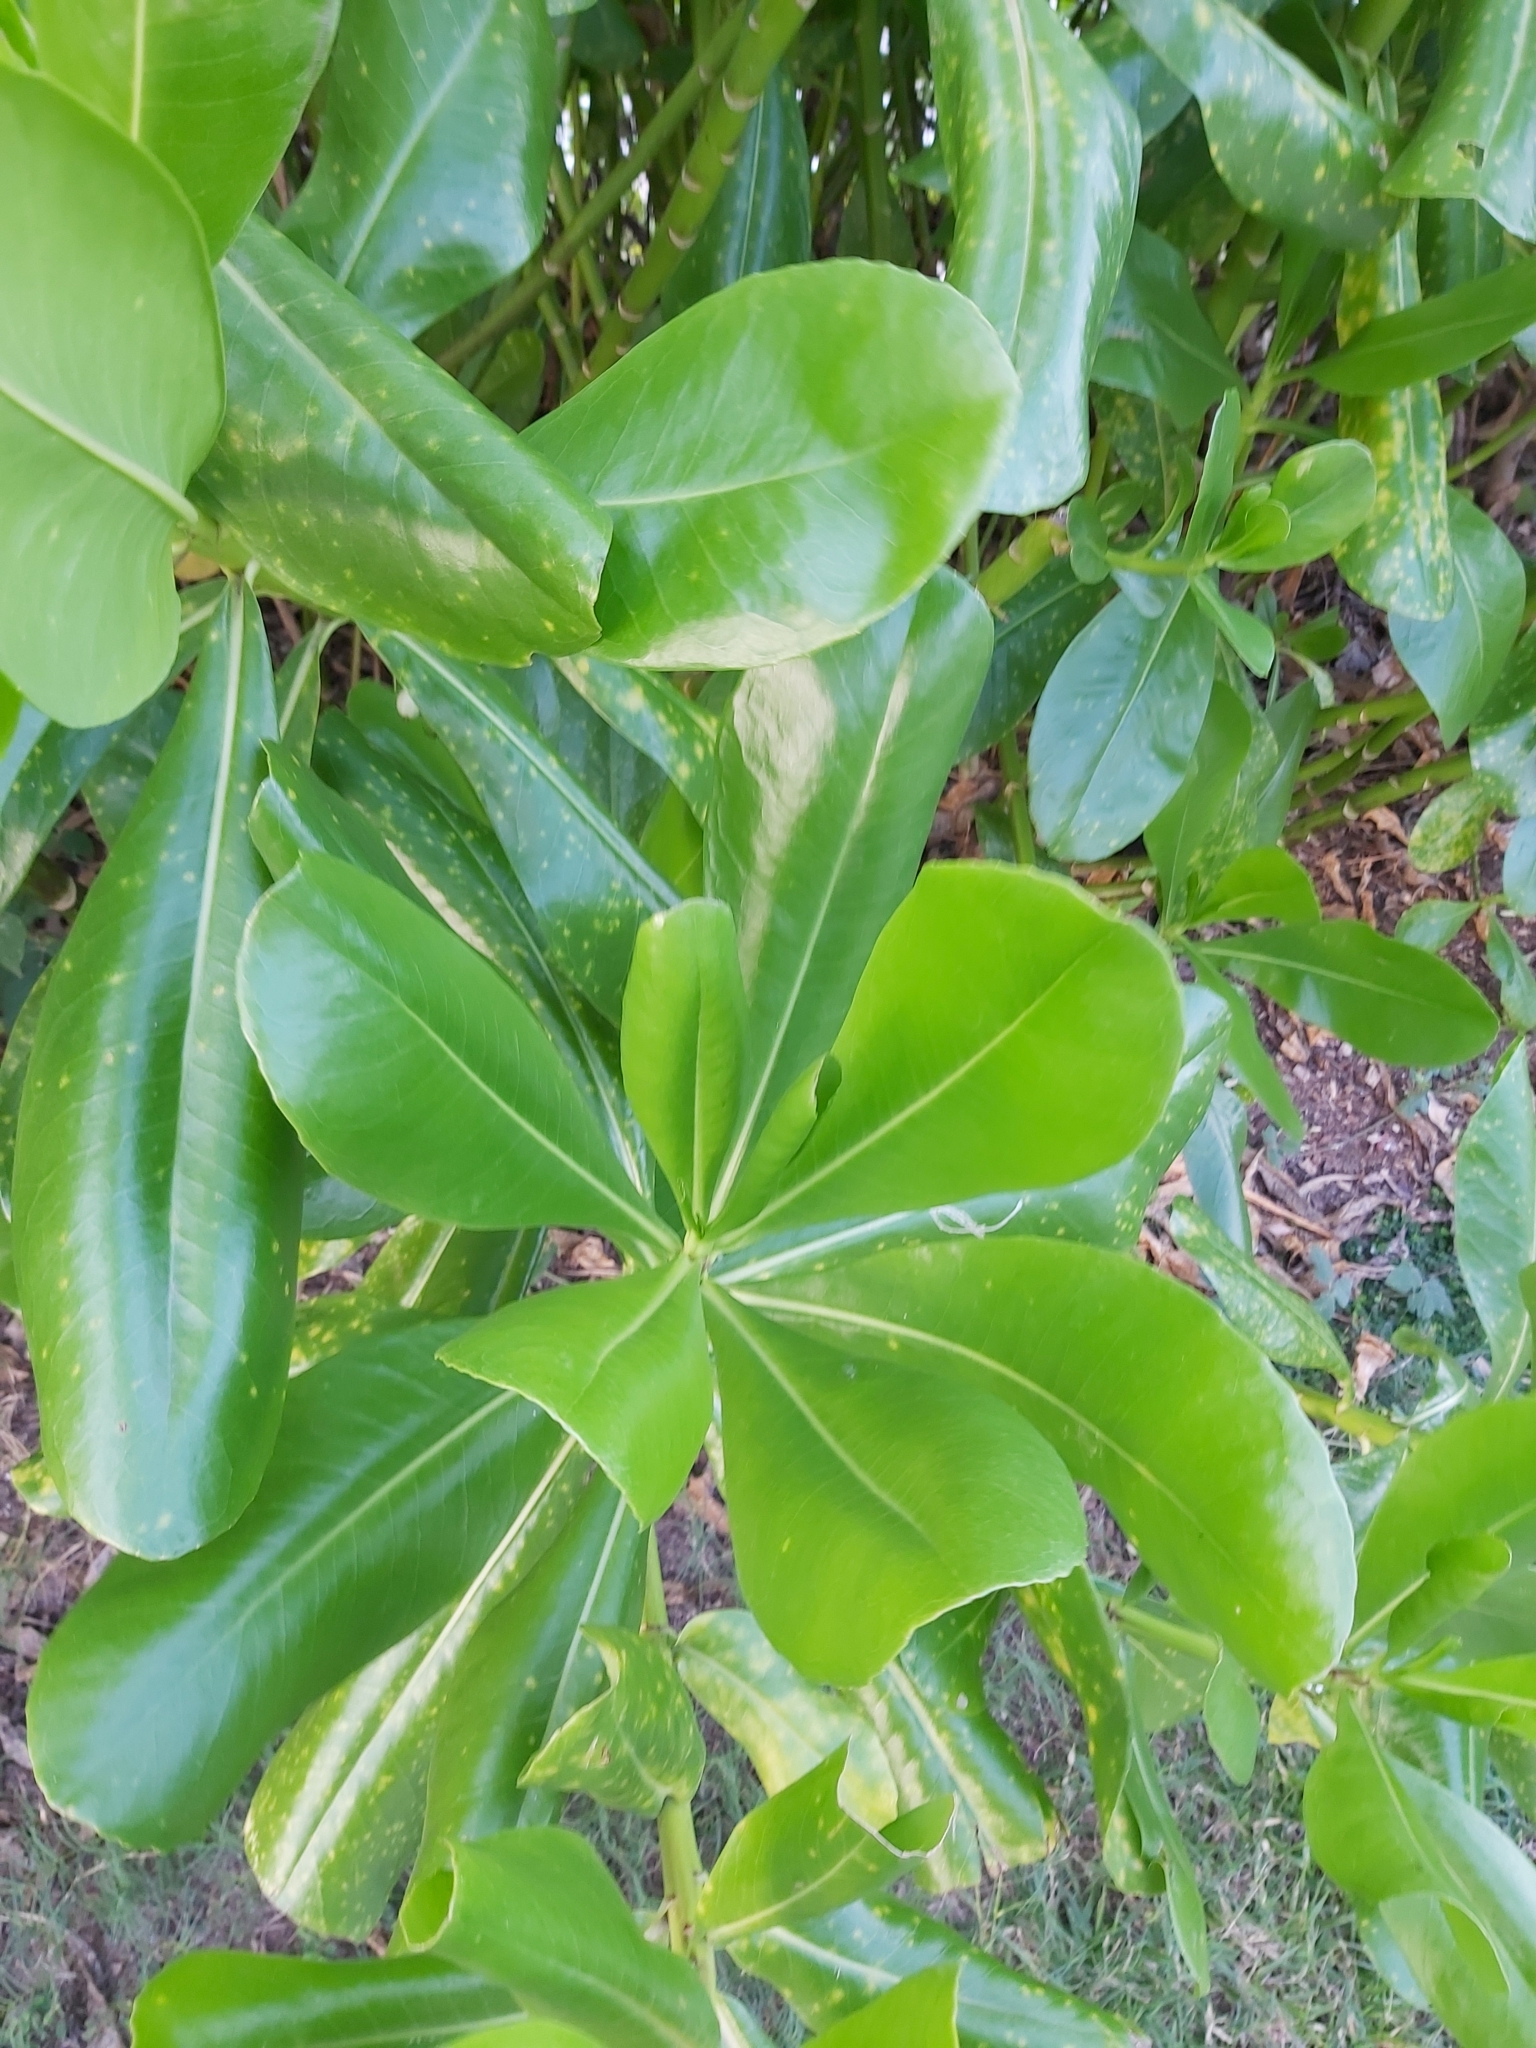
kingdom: Plantae
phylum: Tracheophyta
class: Magnoliopsida
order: Asterales
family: Goodeniaceae
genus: Scaevola
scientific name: Scaevola taccada
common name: Sea lettucetree
